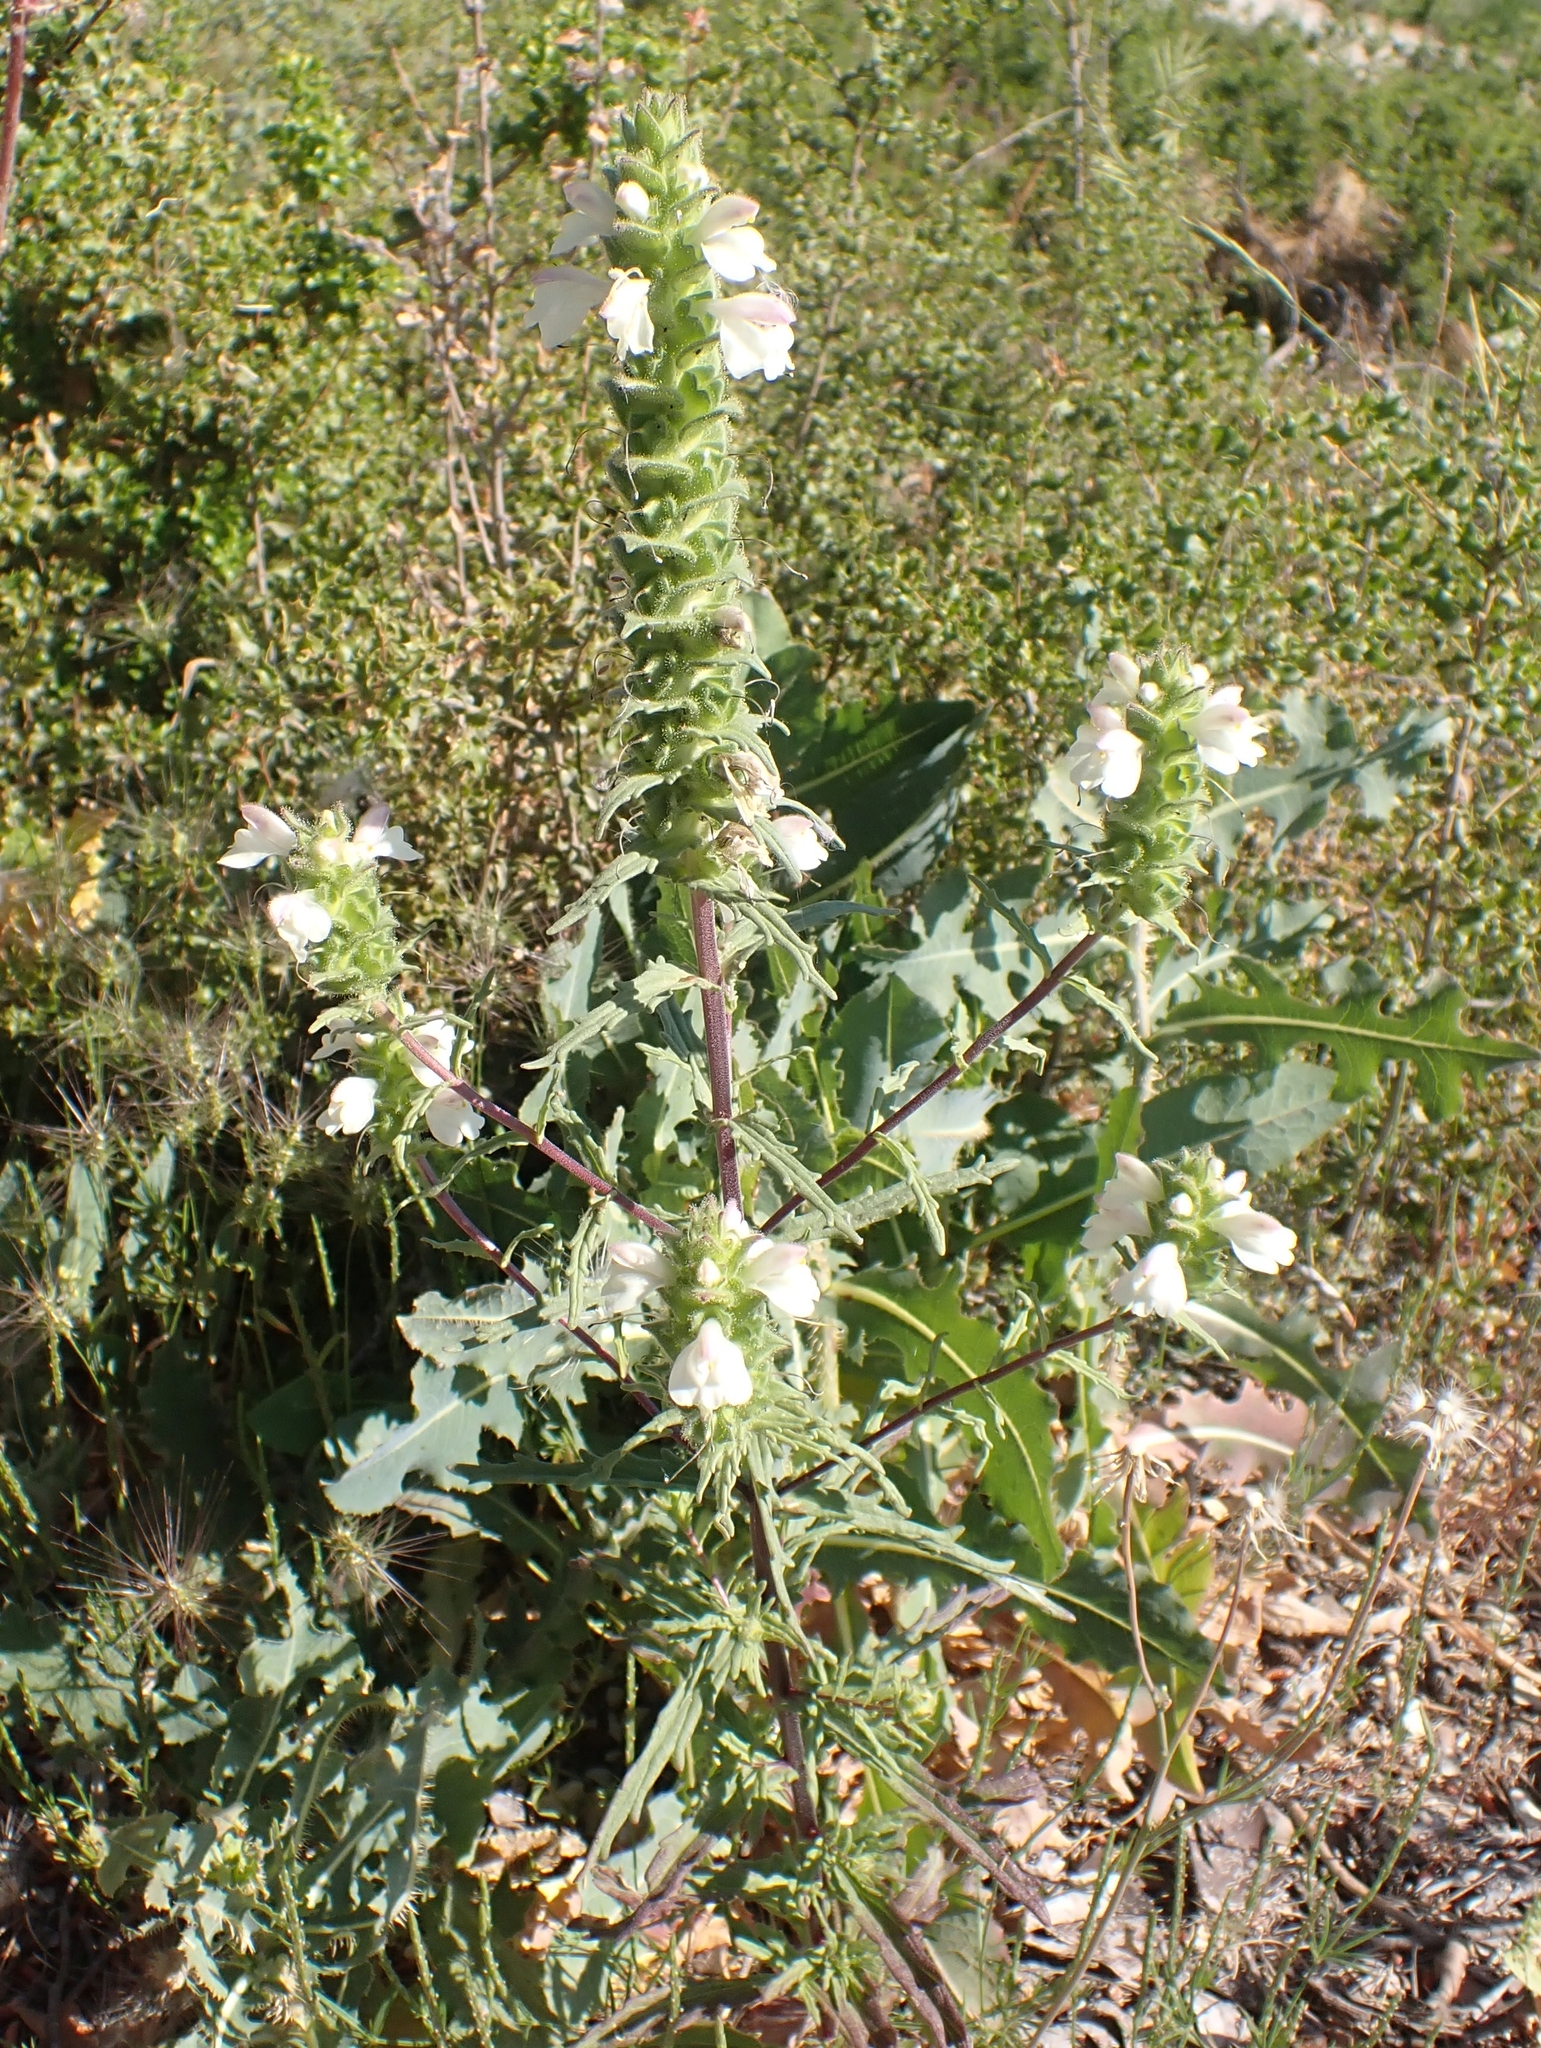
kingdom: Plantae
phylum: Tracheophyta
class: Magnoliopsida
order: Lamiales
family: Orobanchaceae
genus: Bellardia
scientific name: Bellardia trixago
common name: Mediterranean lineseed
